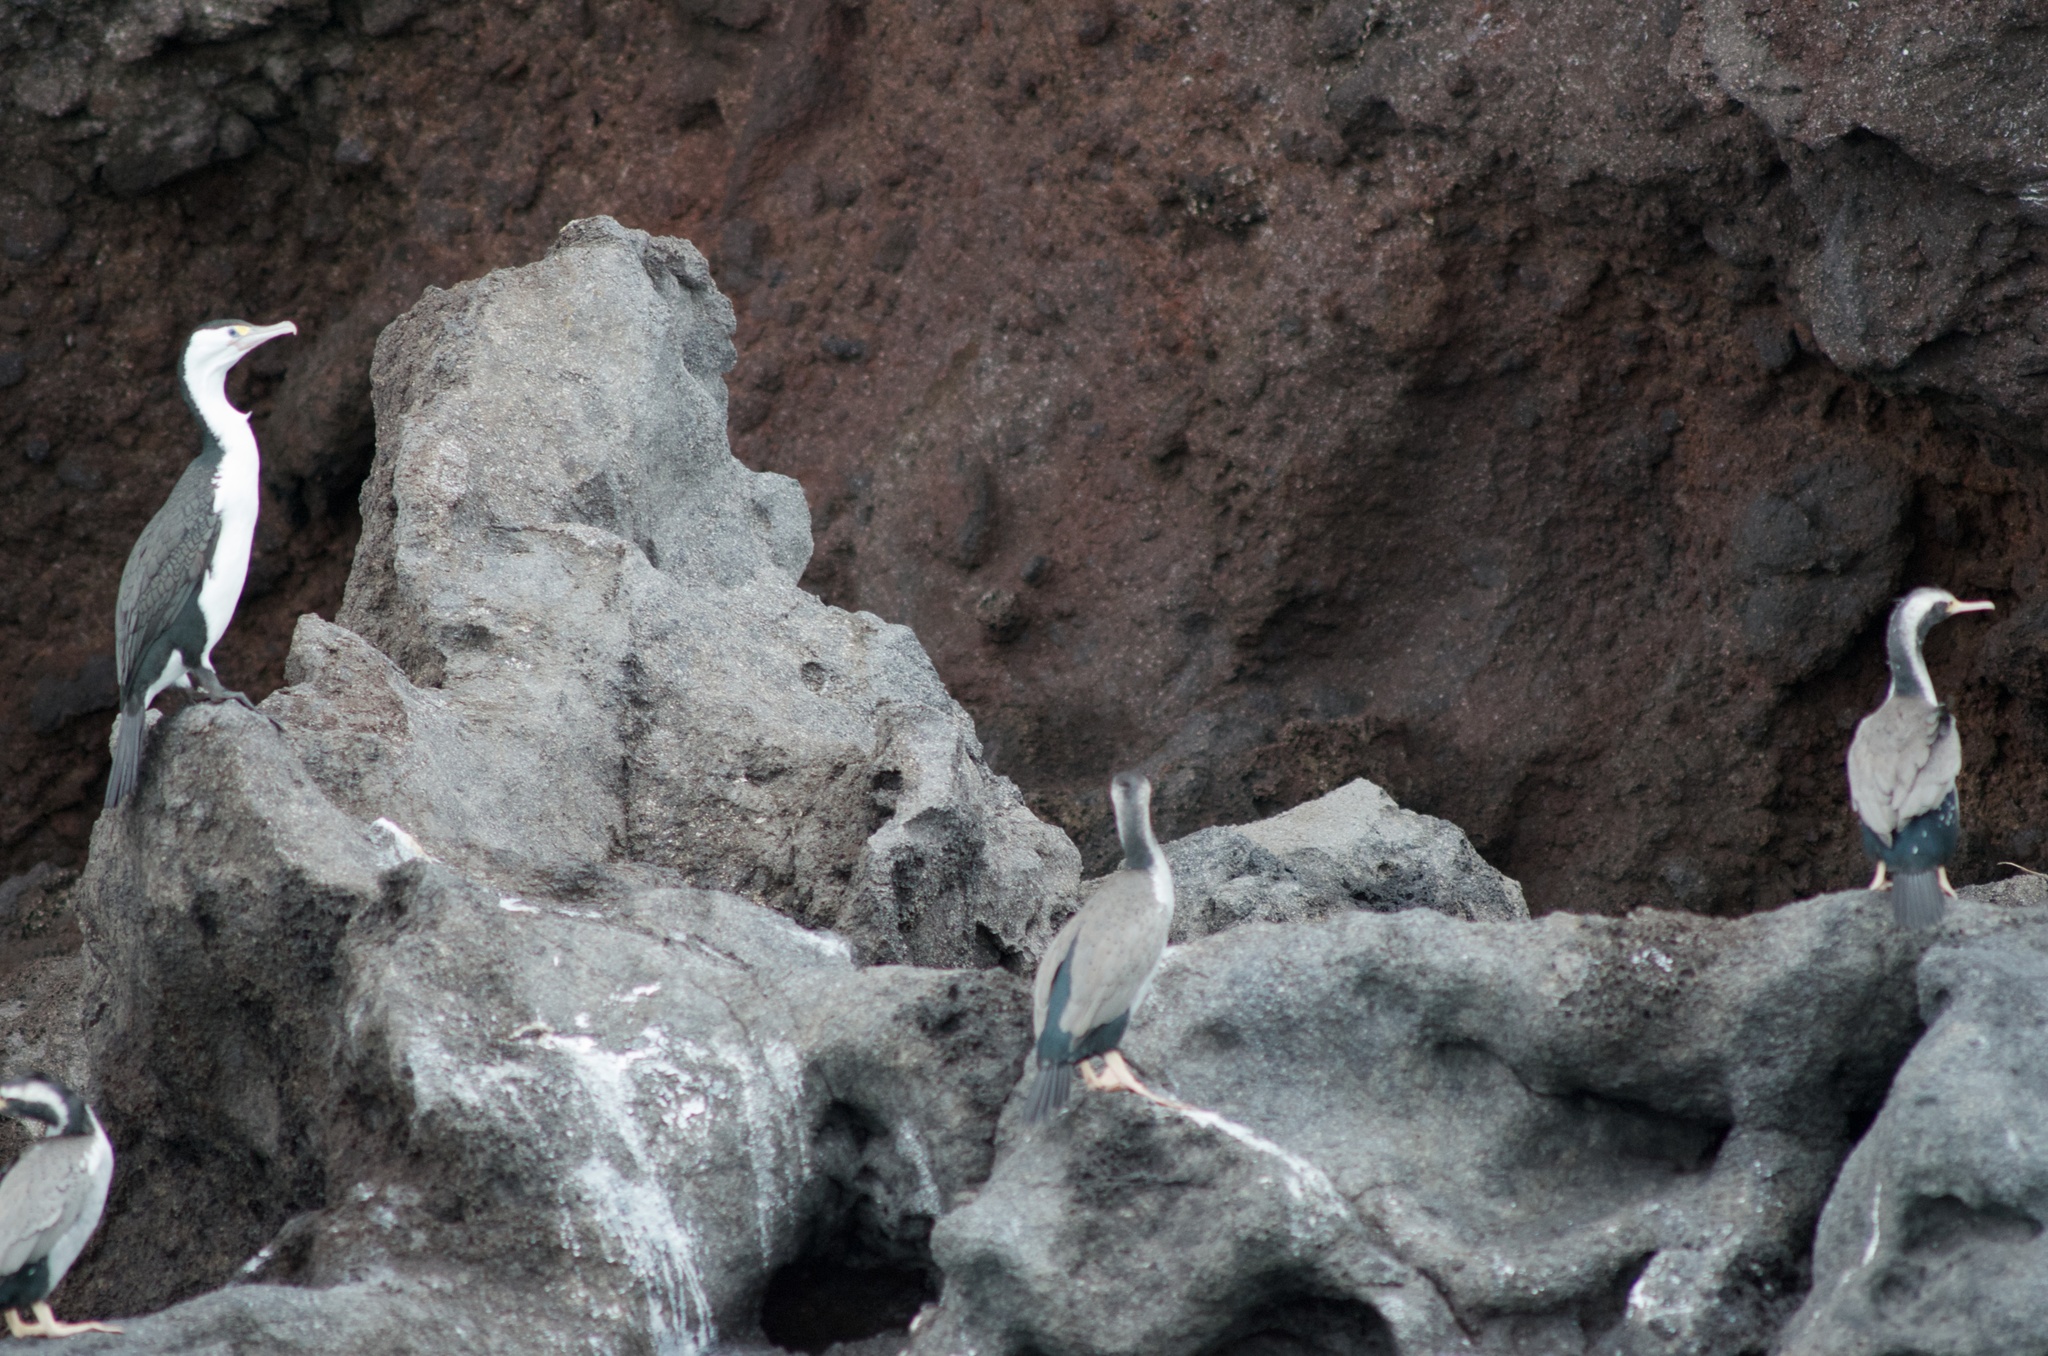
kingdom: Animalia
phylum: Chordata
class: Aves
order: Suliformes
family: Phalacrocoracidae
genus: Phalacrocorax
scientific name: Phalacrocorax varius
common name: Pied cormorant
